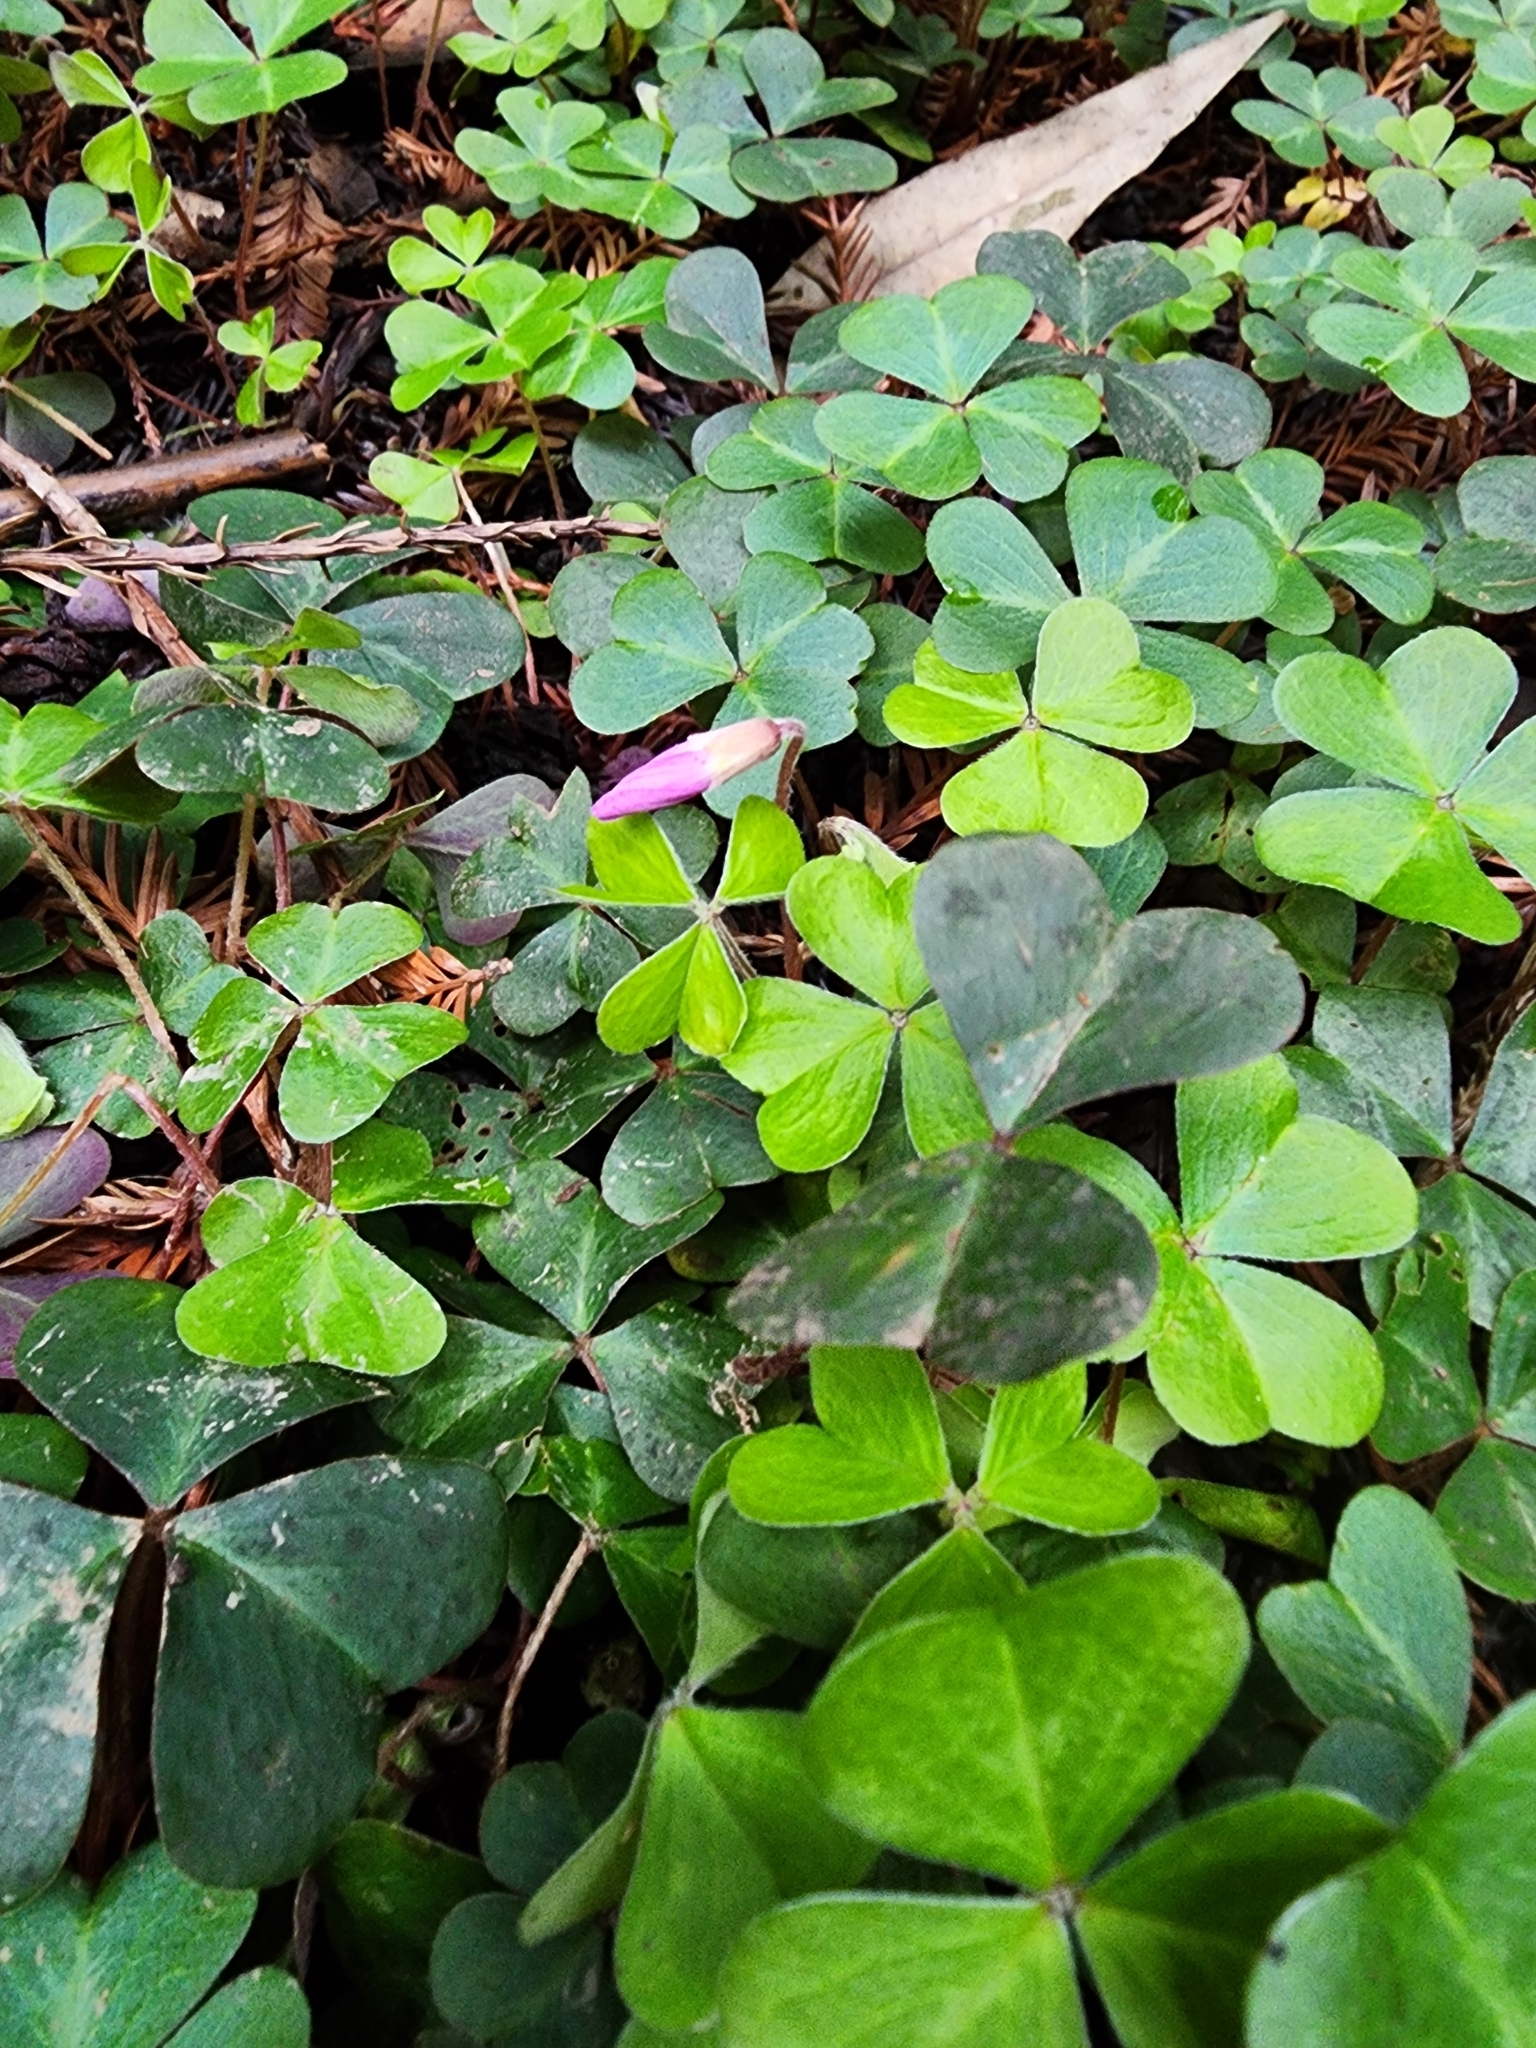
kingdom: Plantae
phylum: Tracheophyta
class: Magnoliopsida
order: Oxalidales
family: Oxalidaceae
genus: Oxalis
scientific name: Oxalis oregana
